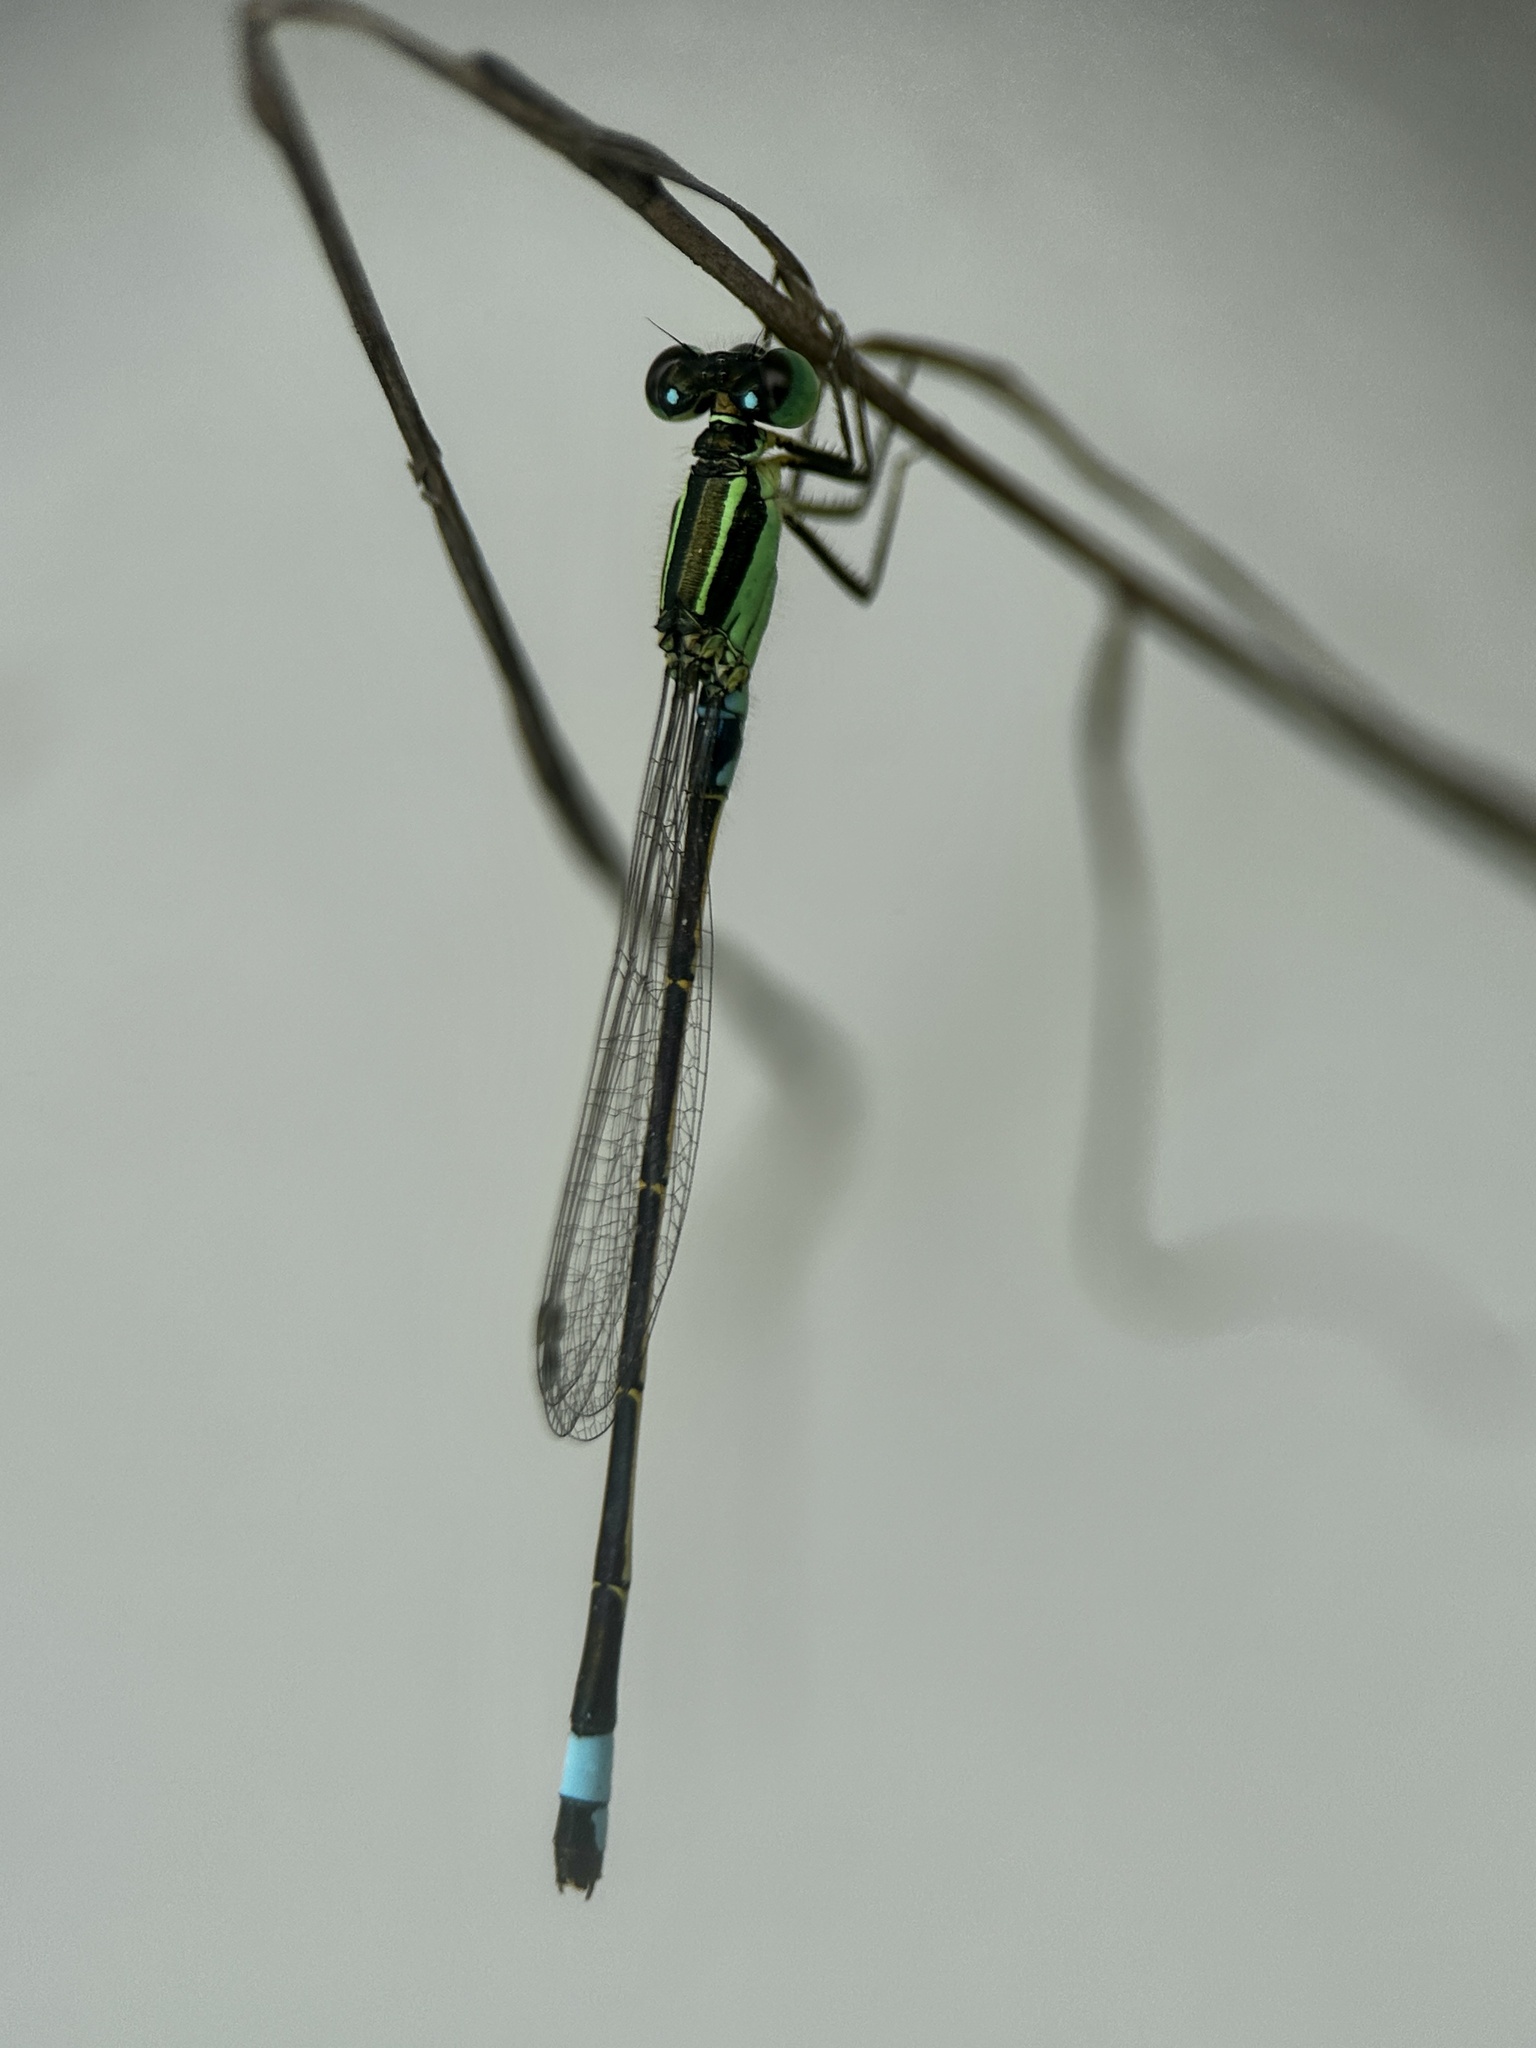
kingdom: Animalia
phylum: Arthropoda
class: Insecta
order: Odonata
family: Coenagrionidae
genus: Ischnura
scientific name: Ischnura senegalensis
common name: Tropical bluetail
